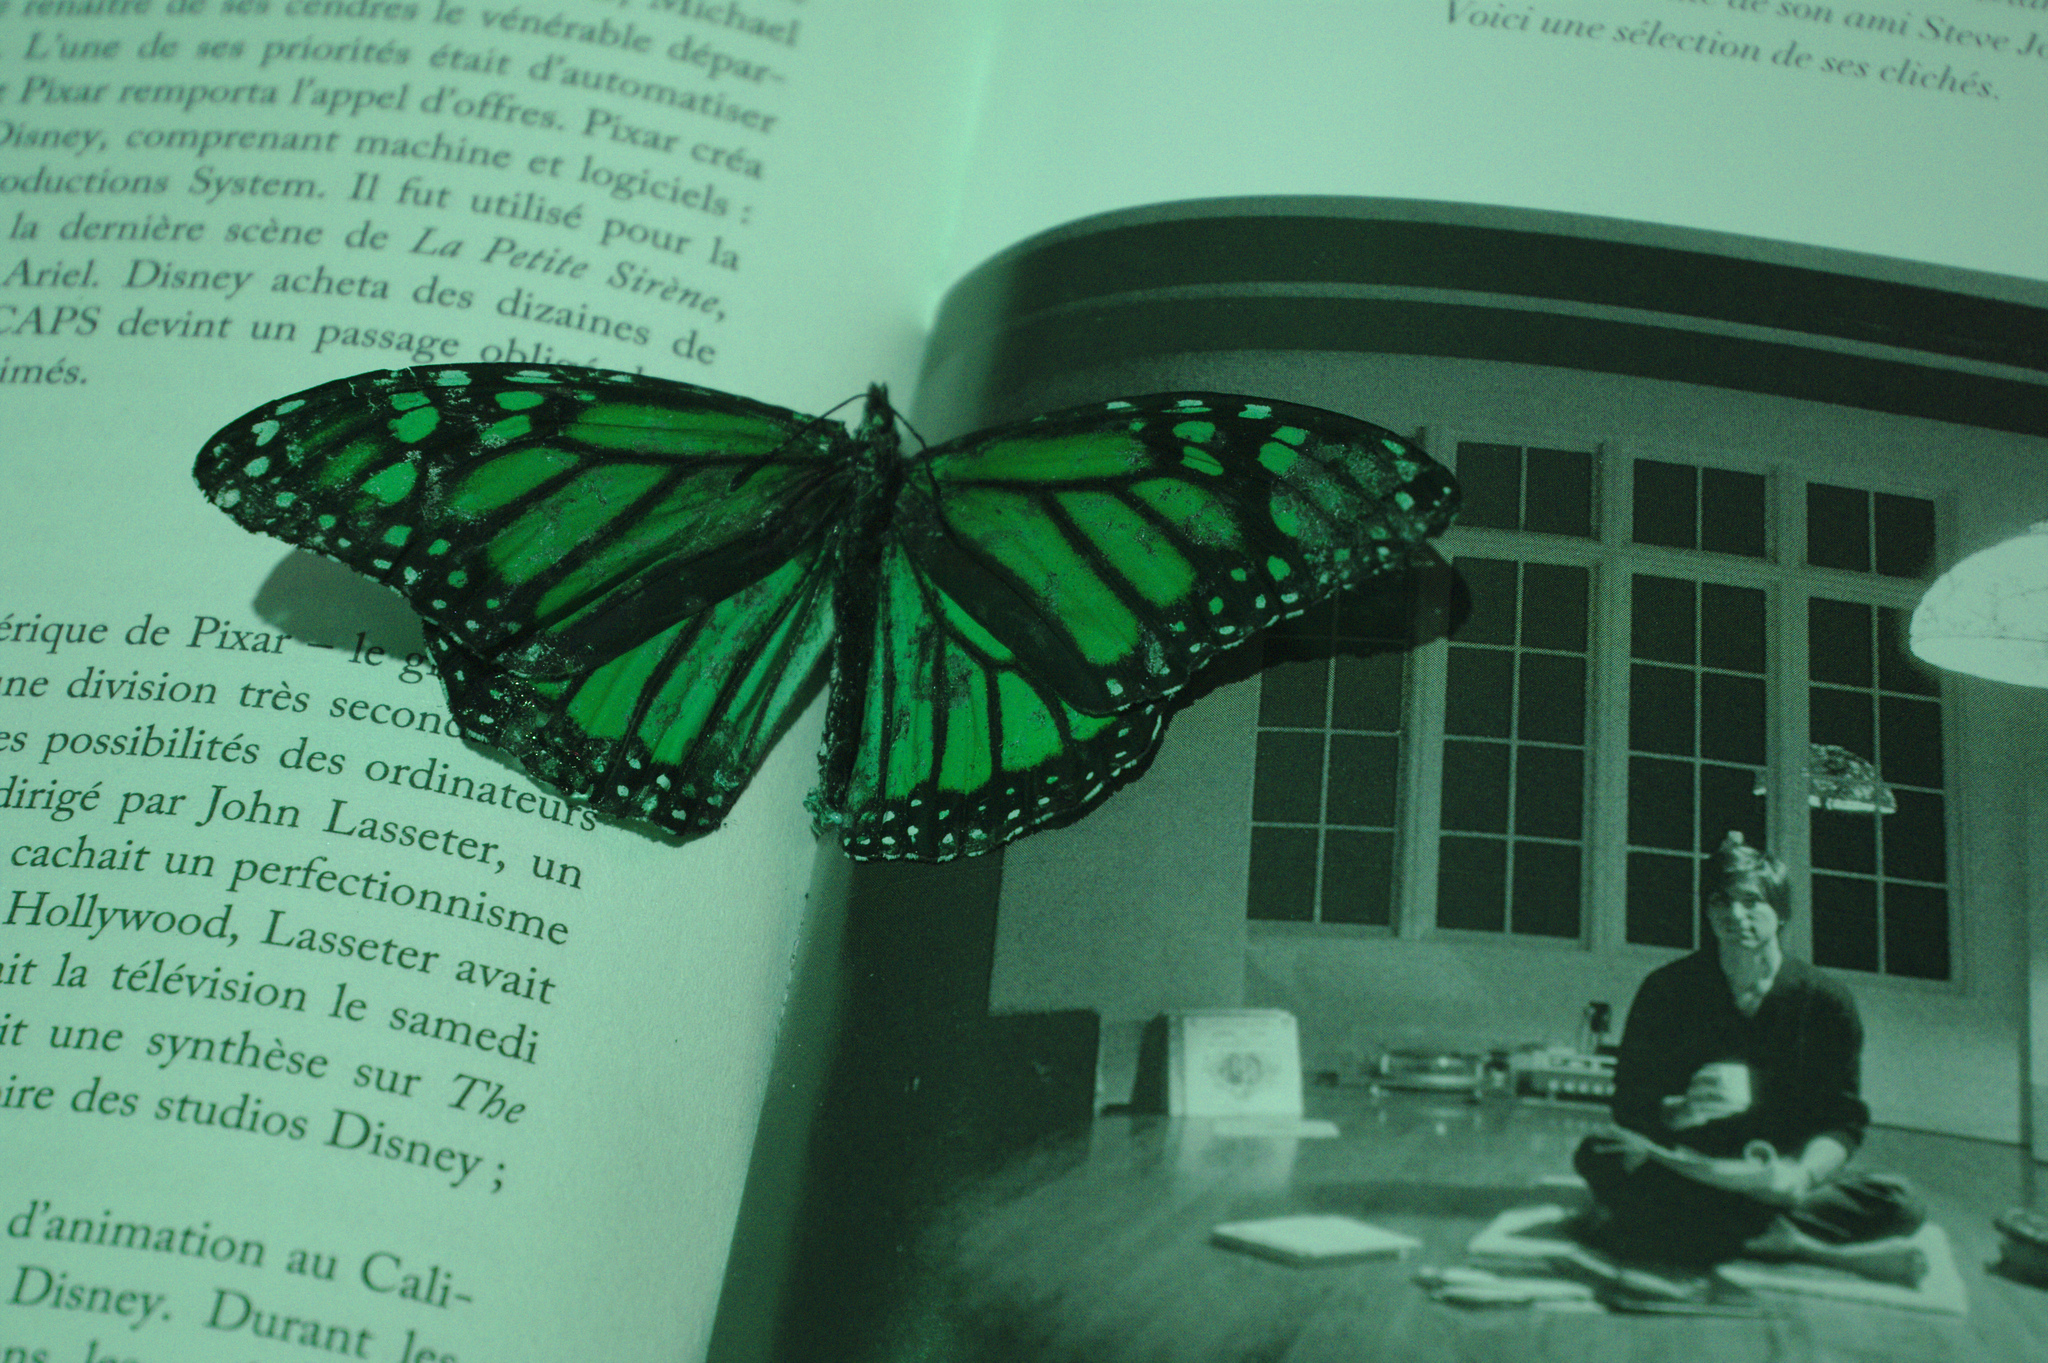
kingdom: Animalia
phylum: Arthropoda
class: Insecta
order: Lepidoptera
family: Nymphalidae
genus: Danaus
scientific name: Danaus plexippus
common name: Monarch
